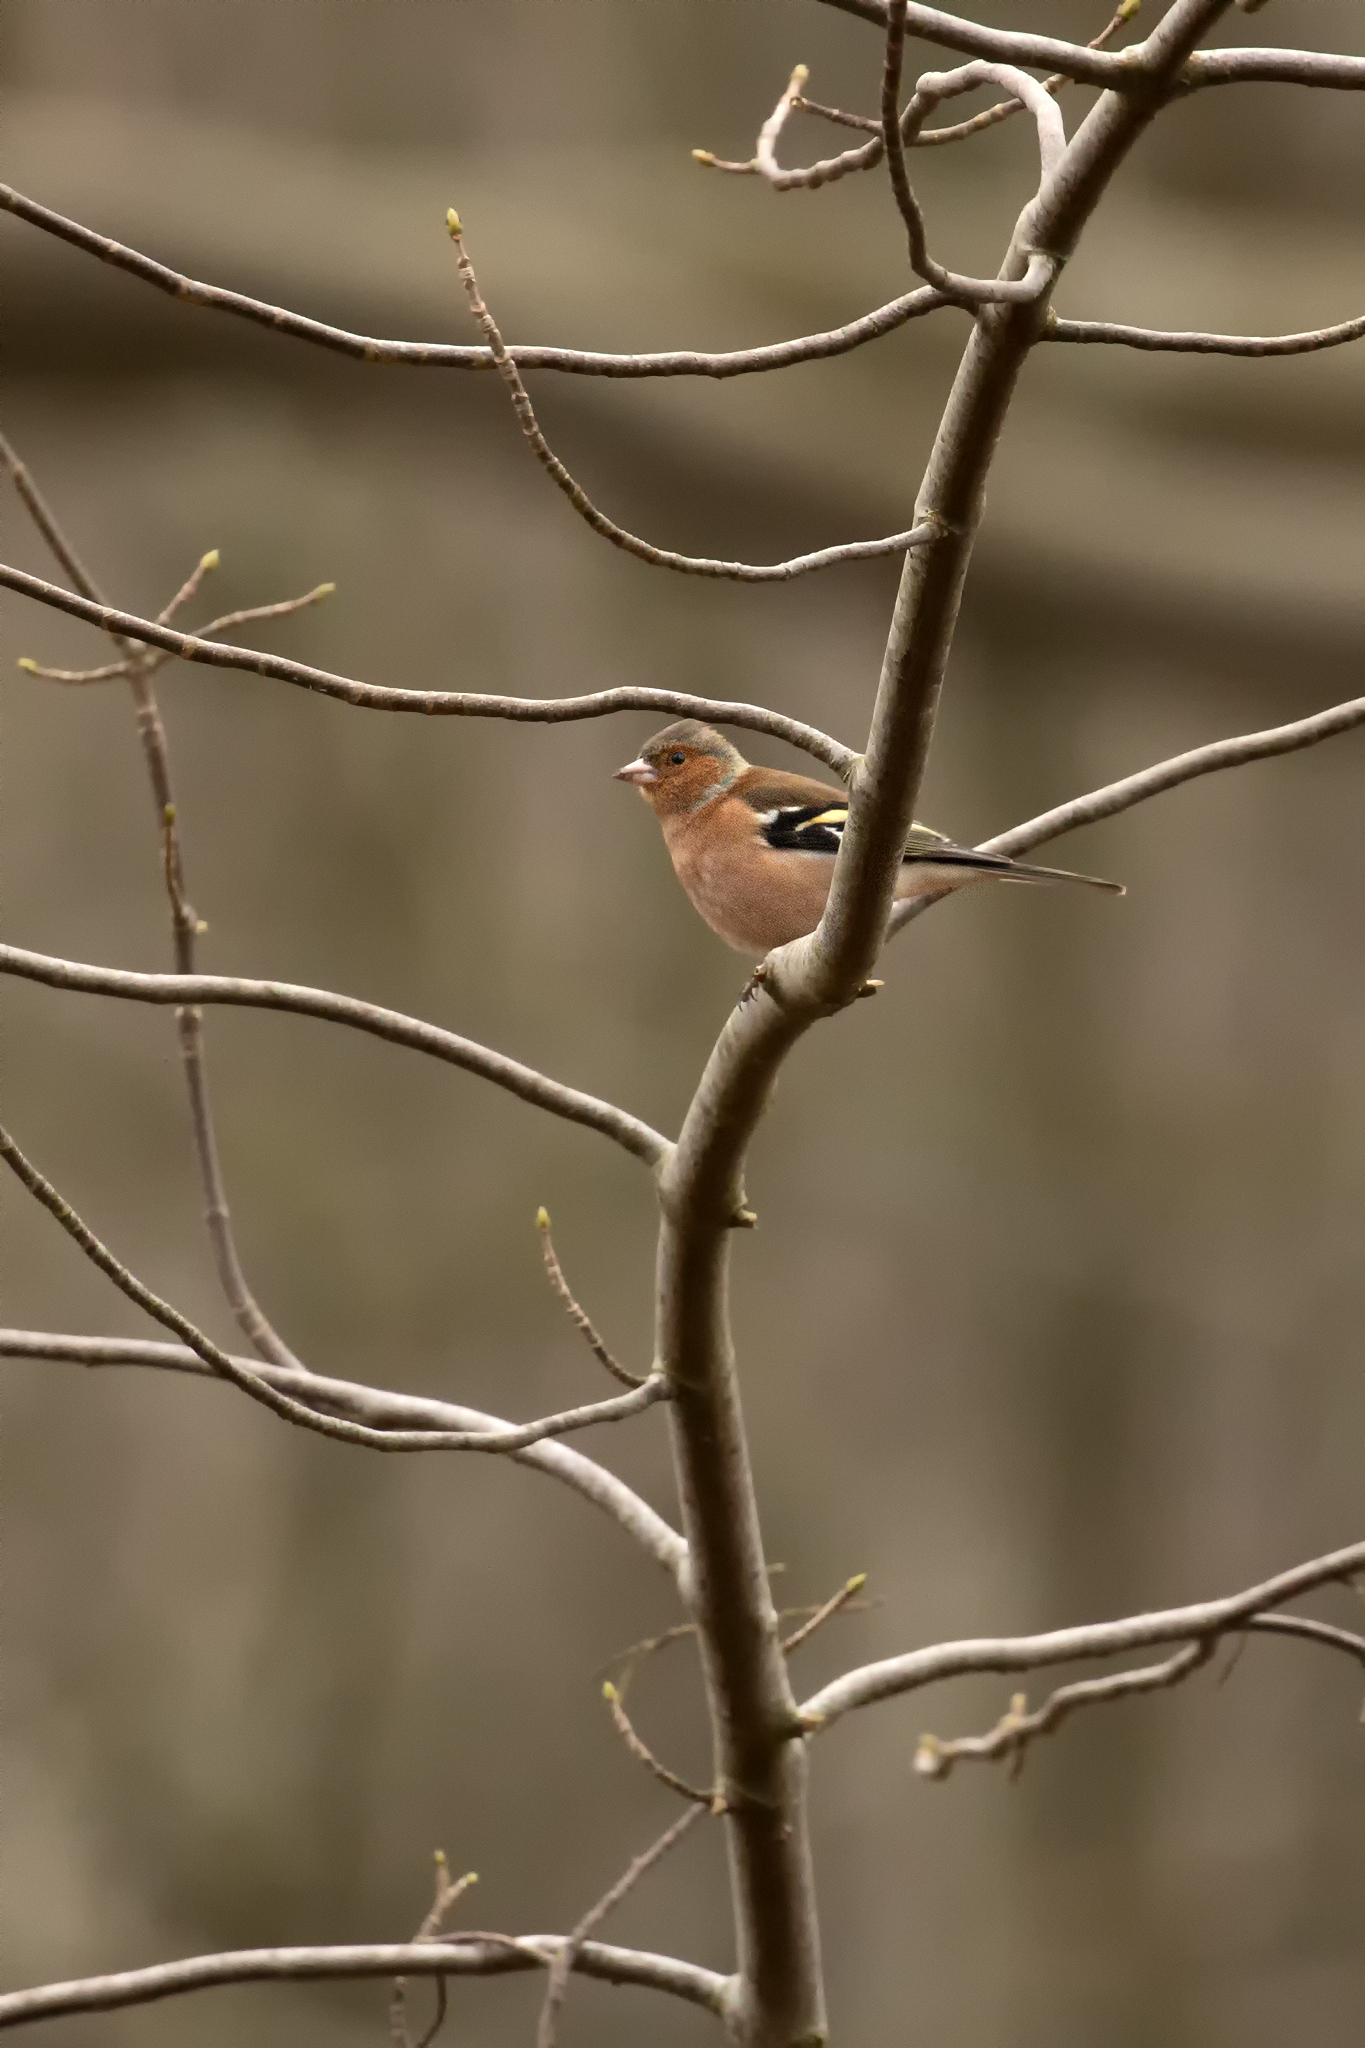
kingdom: Animalia
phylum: Chordata
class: Aves
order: Passeriformes
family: Fringillidae
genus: Fringilla
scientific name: Fringilla coelebs
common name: Common chaffinch
